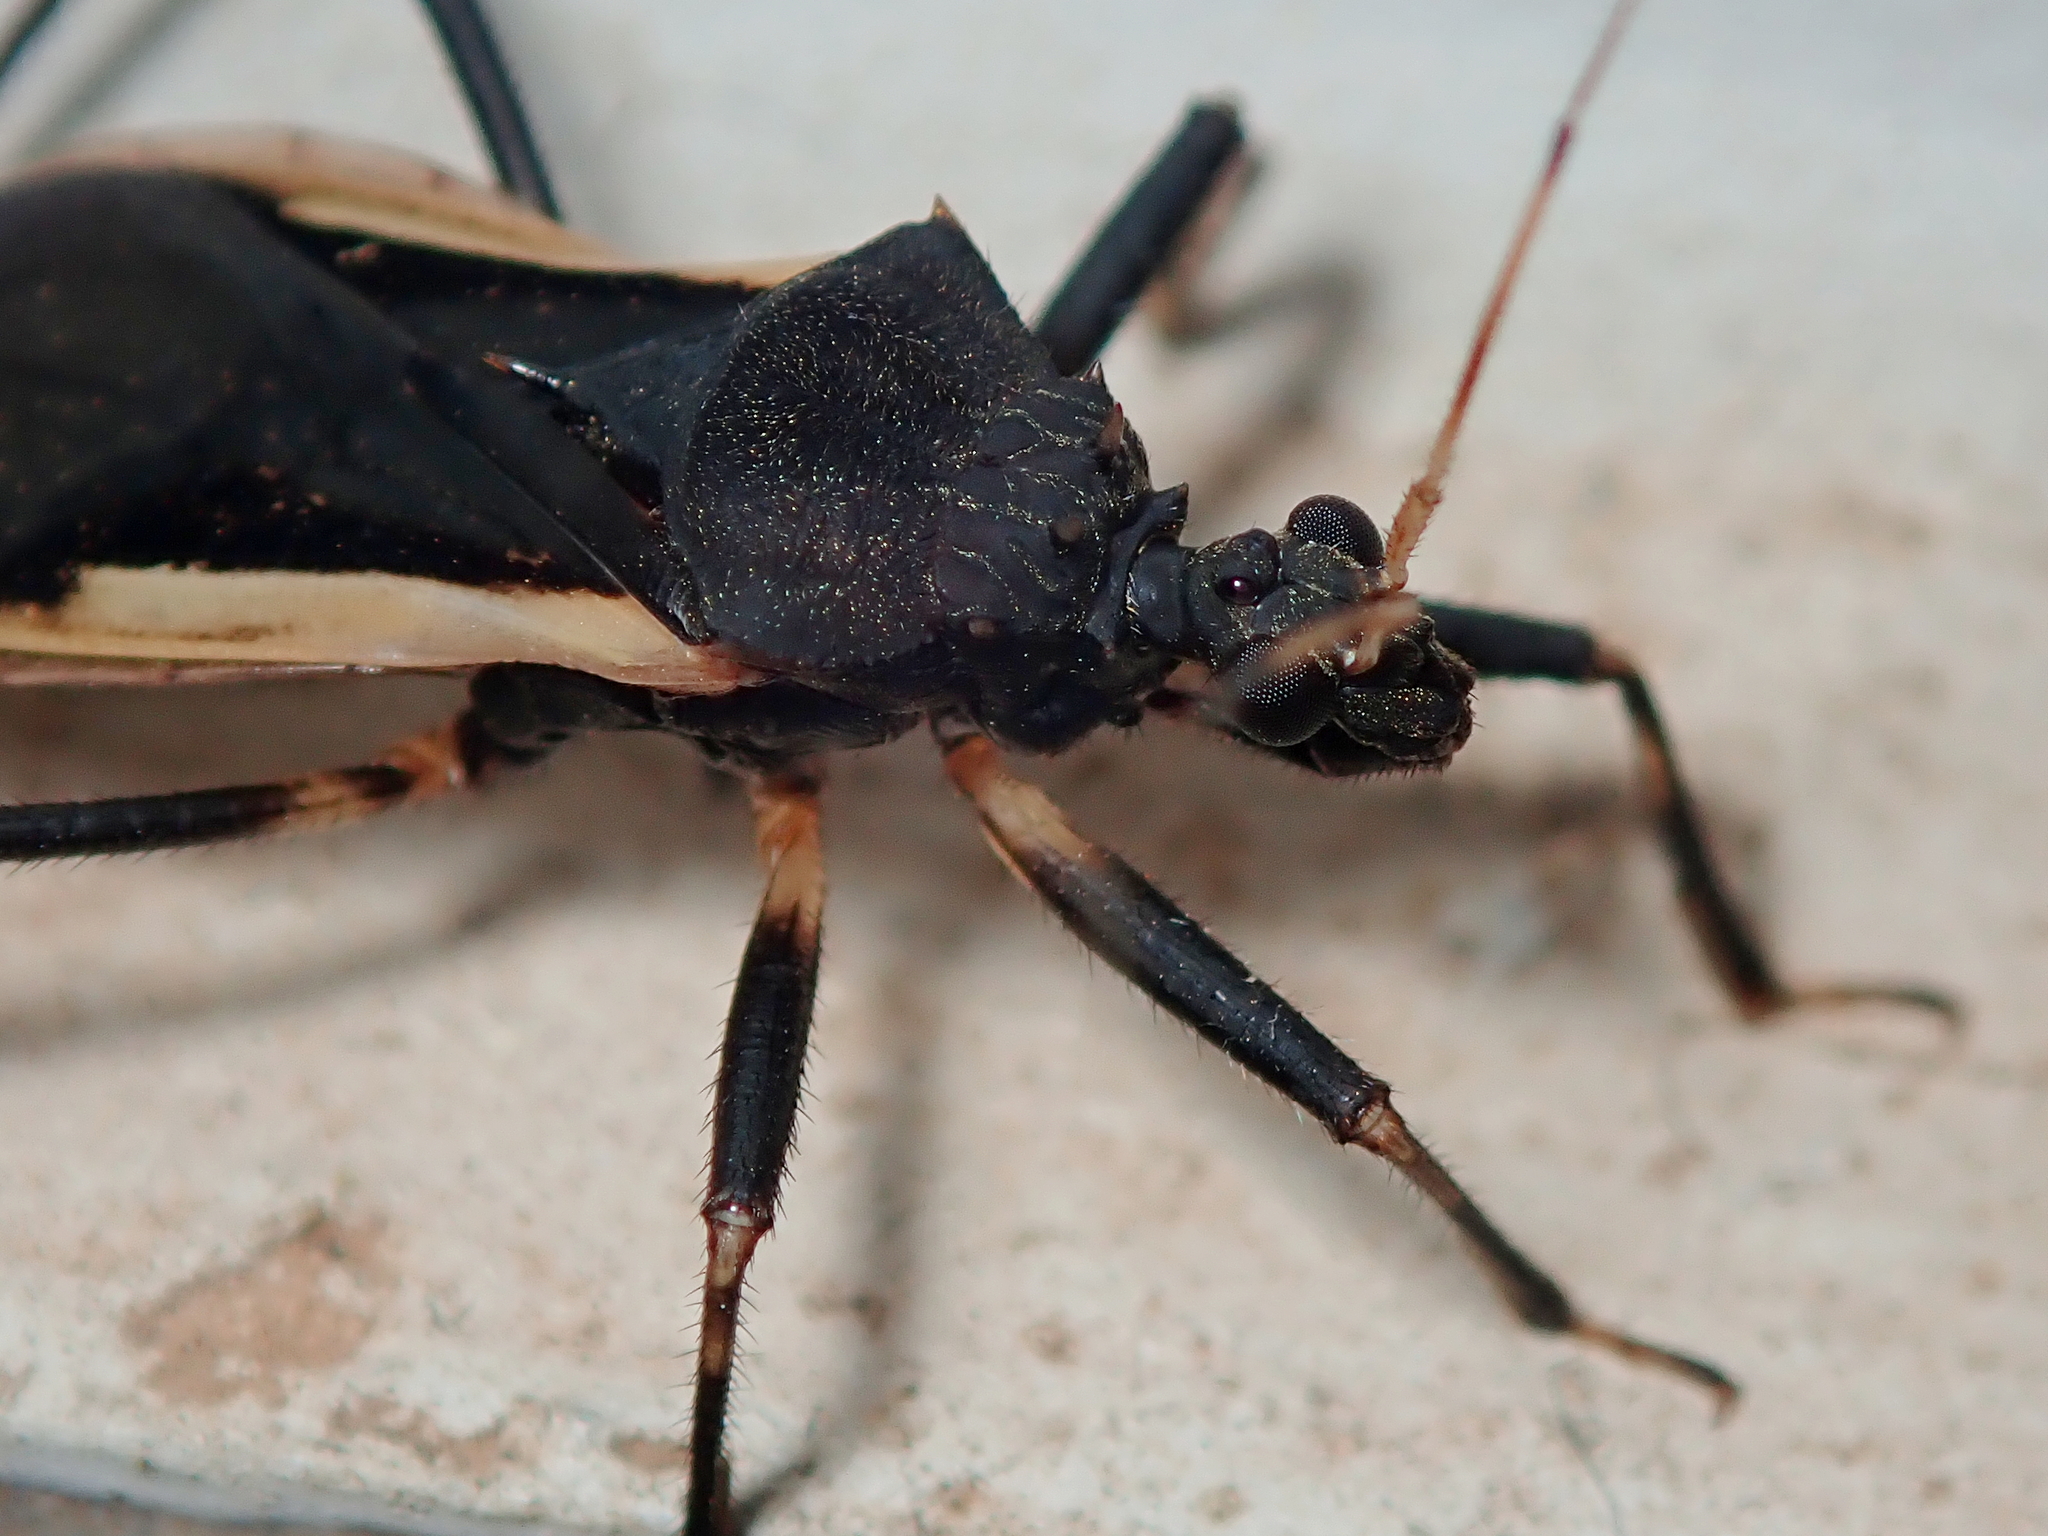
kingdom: Animalia
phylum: Arthropoda
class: Insecta
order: Hemiptera
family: Reduviidae
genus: Zelurus
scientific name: Zelurus albispinus
